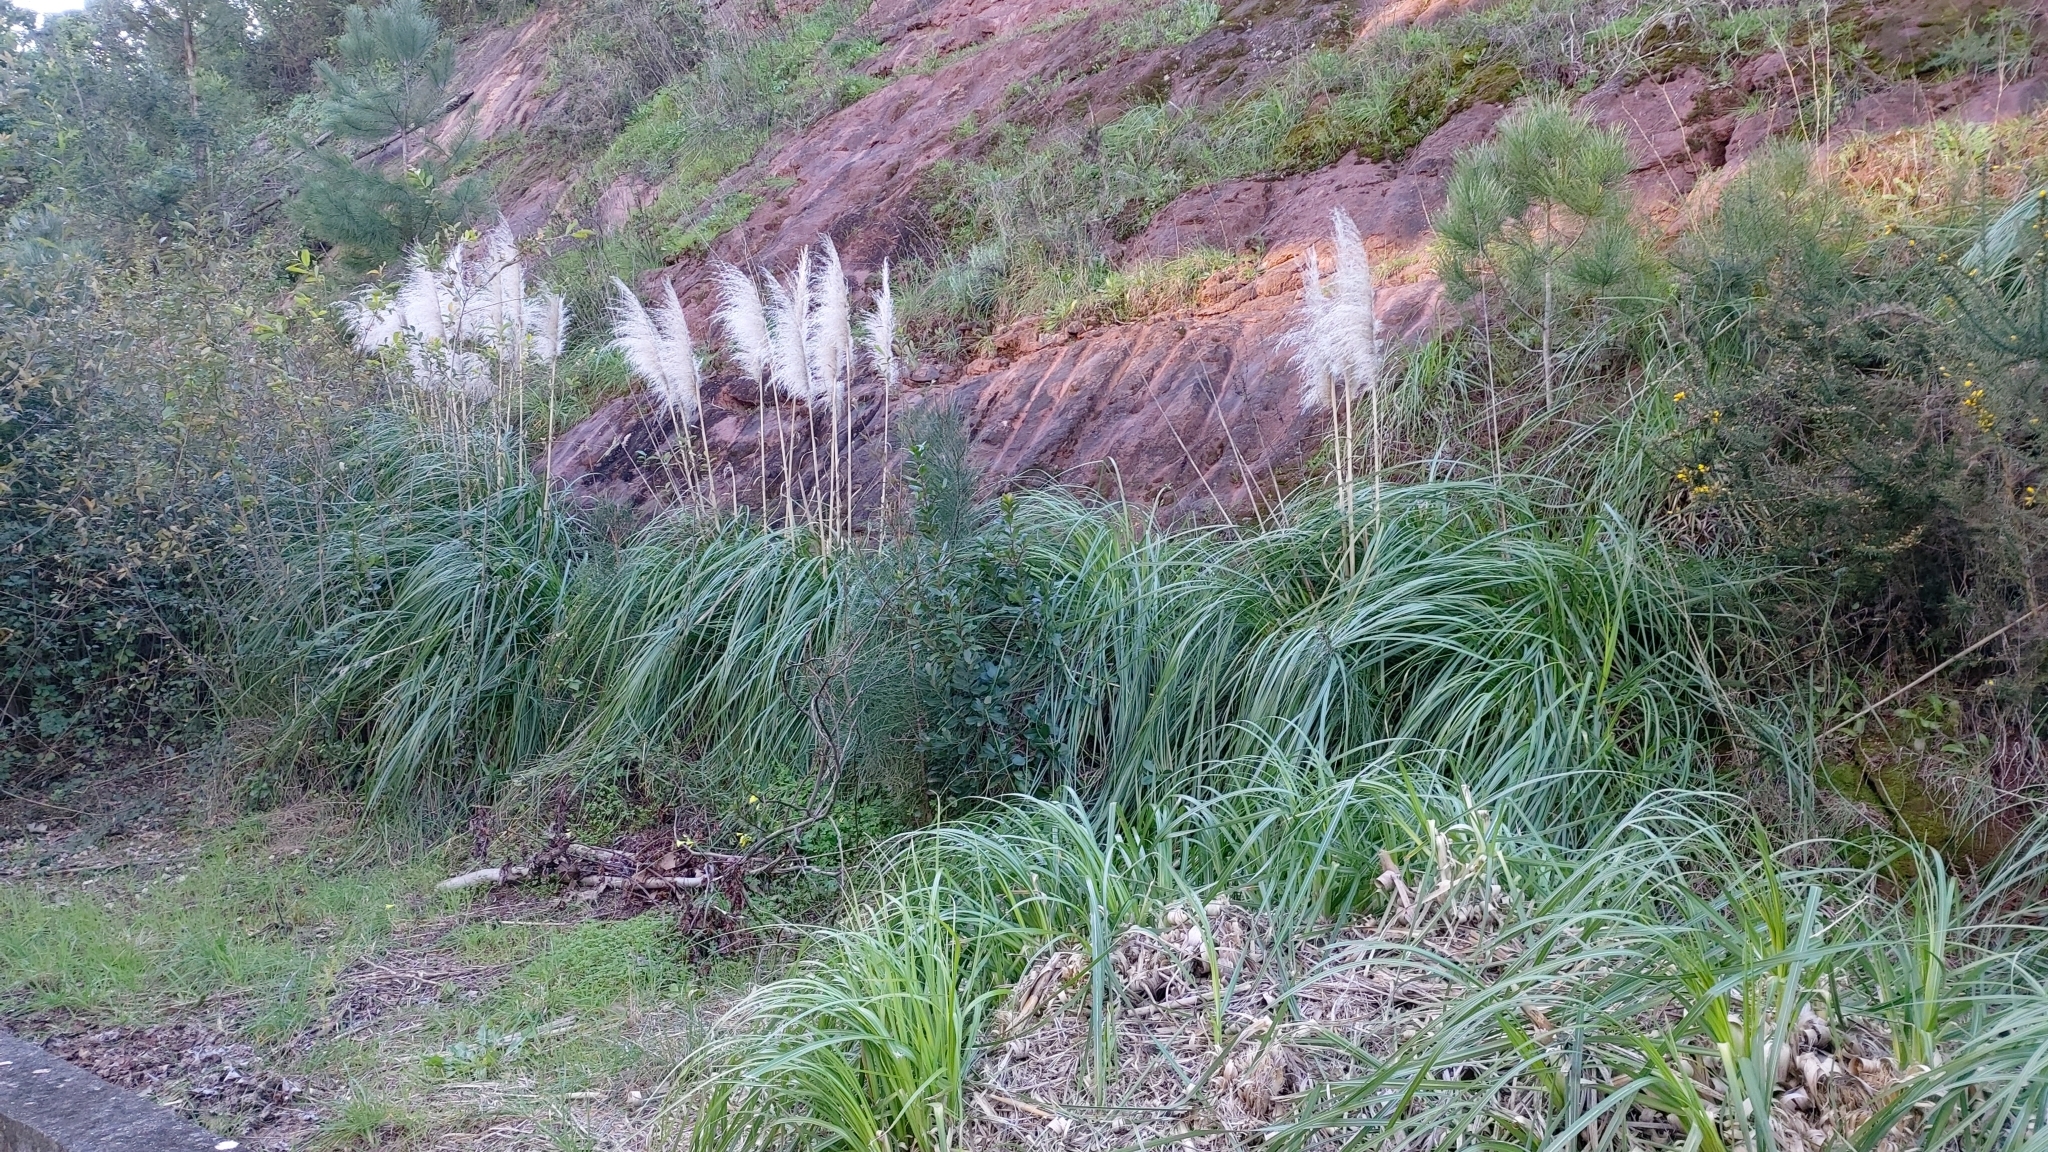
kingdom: Plantae
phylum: Tracheophyta
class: Liliopsida
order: Poales
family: Poaceae
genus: Cortaderia
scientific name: Cortaderia selloana
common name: Uruguayan pampas grass
